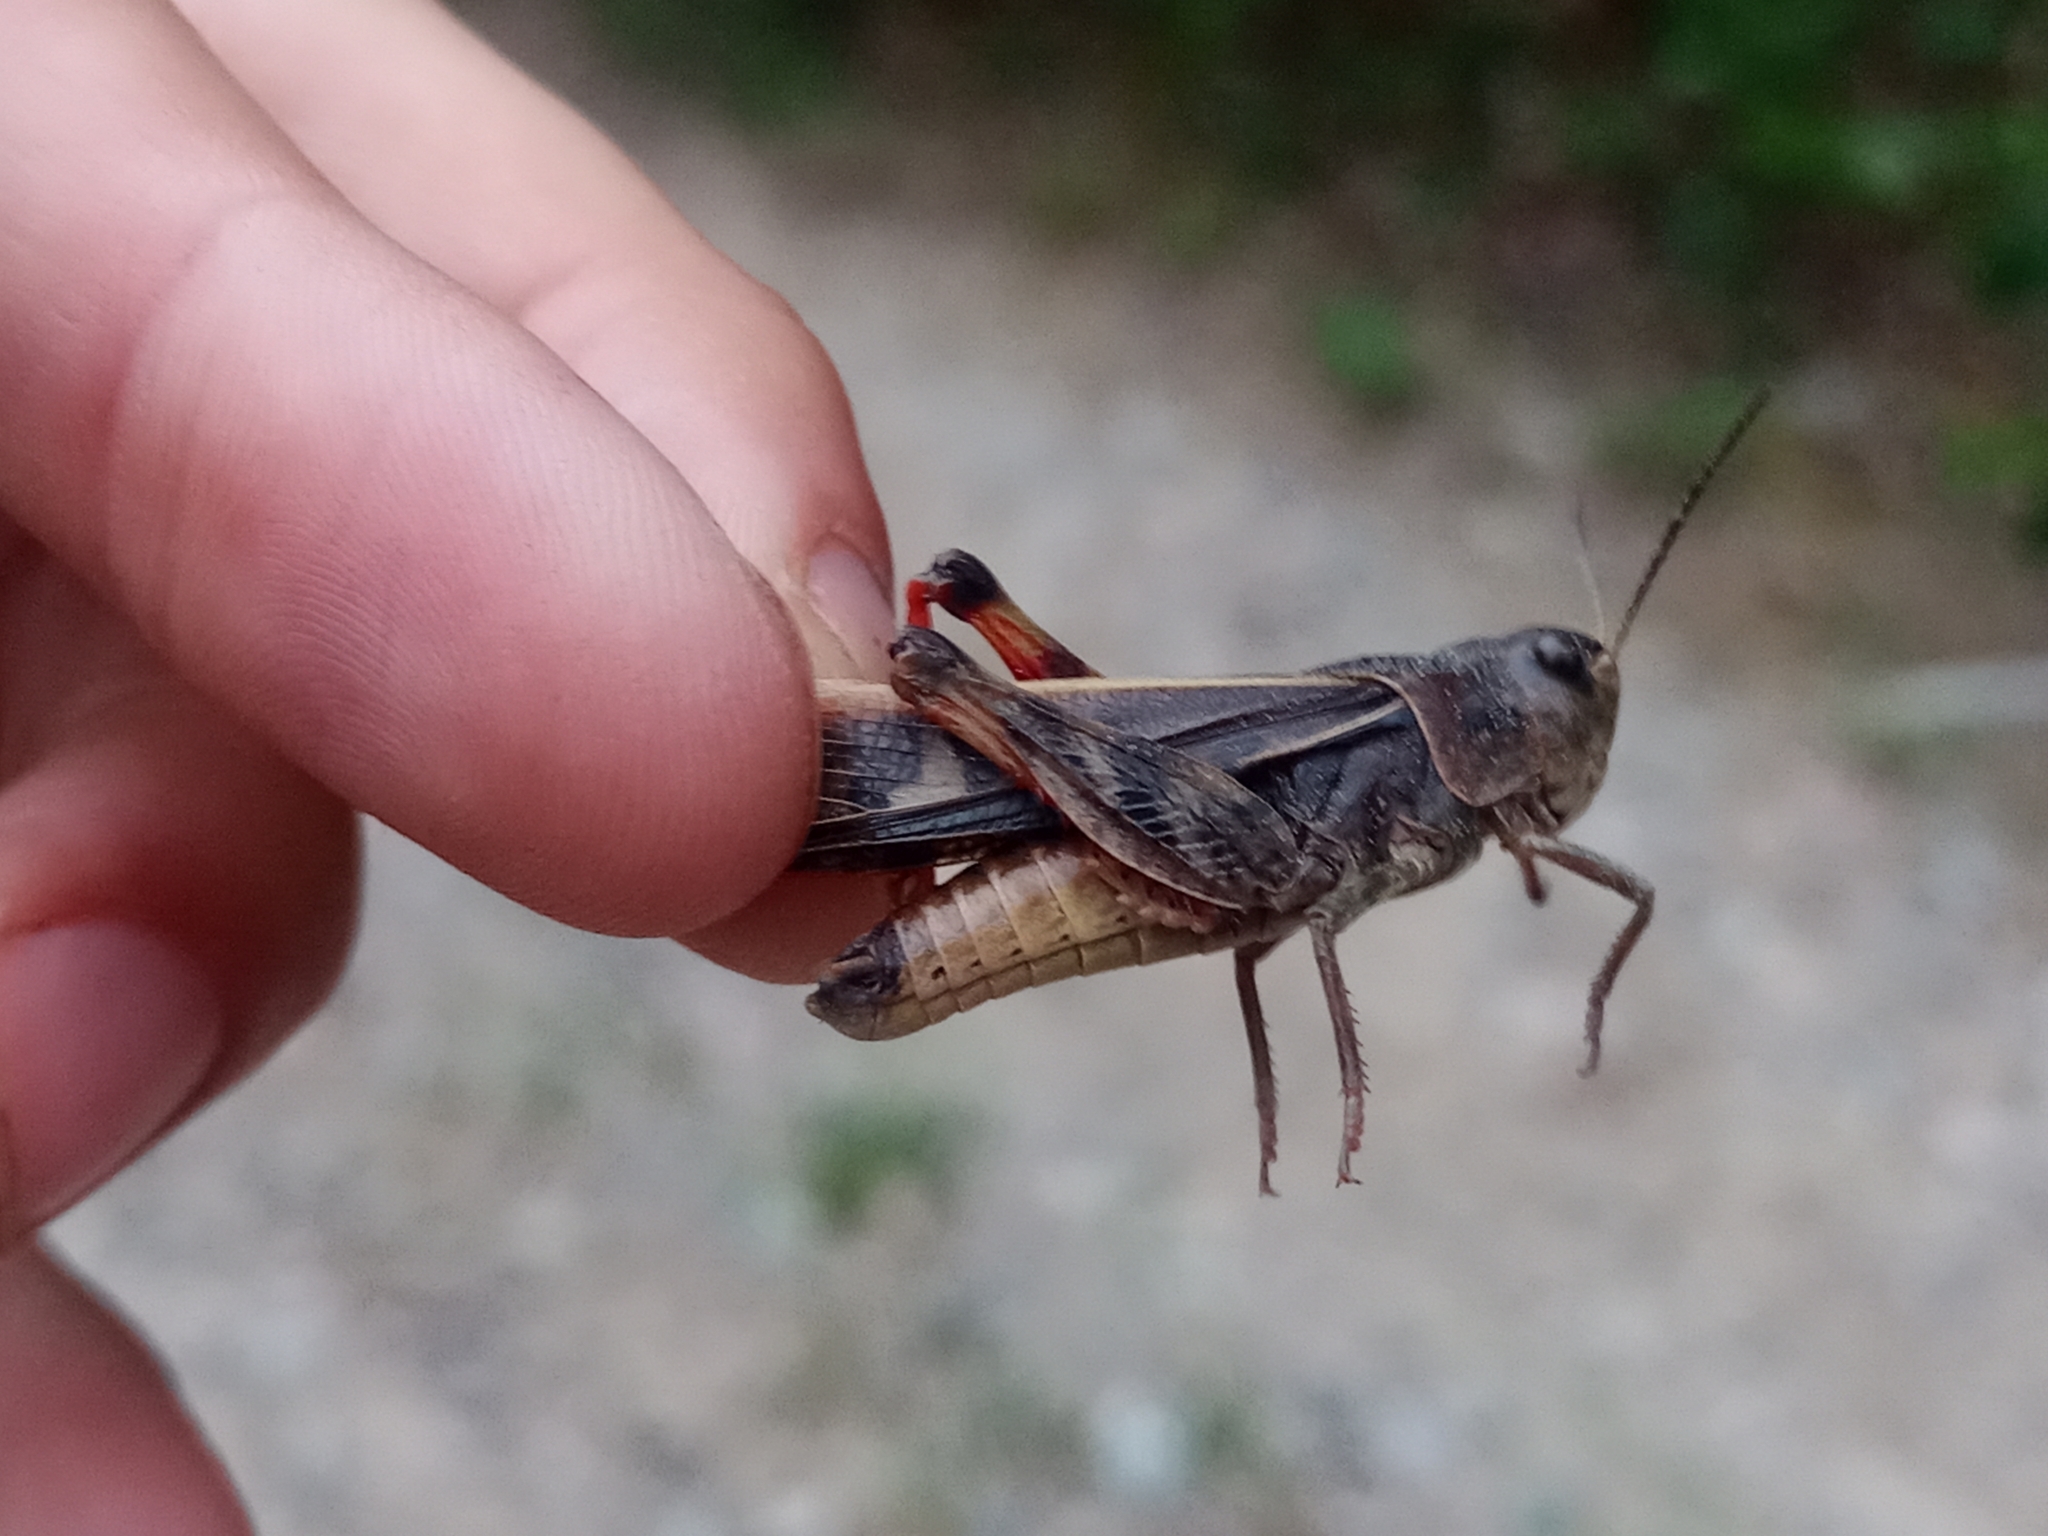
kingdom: Animalia
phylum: Arthropoda
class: Insecta
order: Orthoptera
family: Acrididae
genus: Camnula
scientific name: Camnula pellucida
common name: Clear-winged grasshopper
